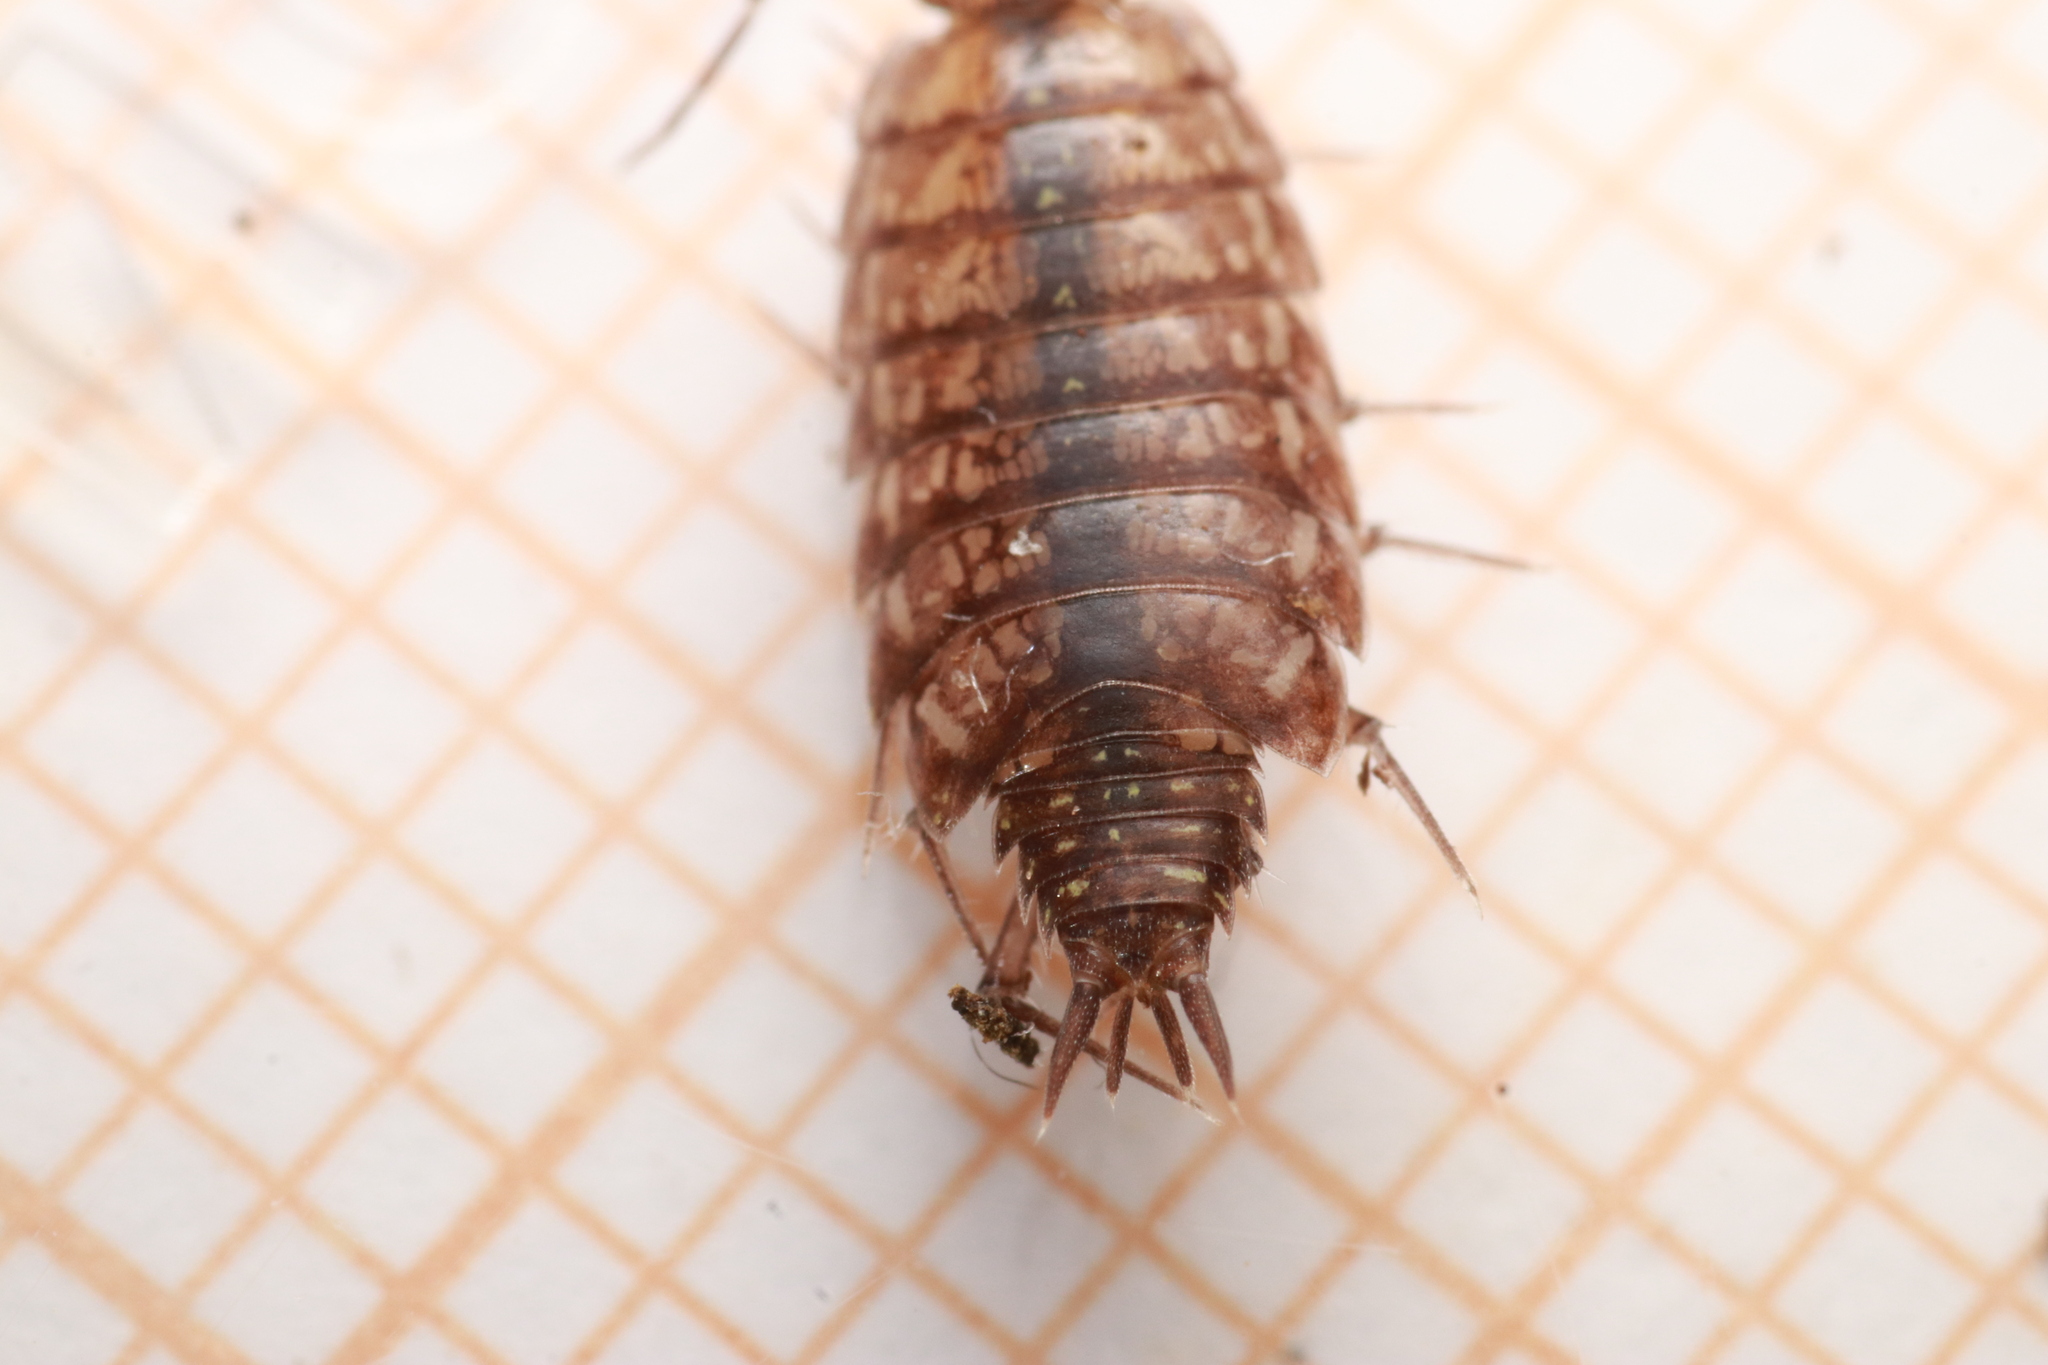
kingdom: Animalia
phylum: Arthropoda
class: Malacostraca
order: Isopoda
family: Philosciidae
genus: Philoscia
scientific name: Philoscia affinis
